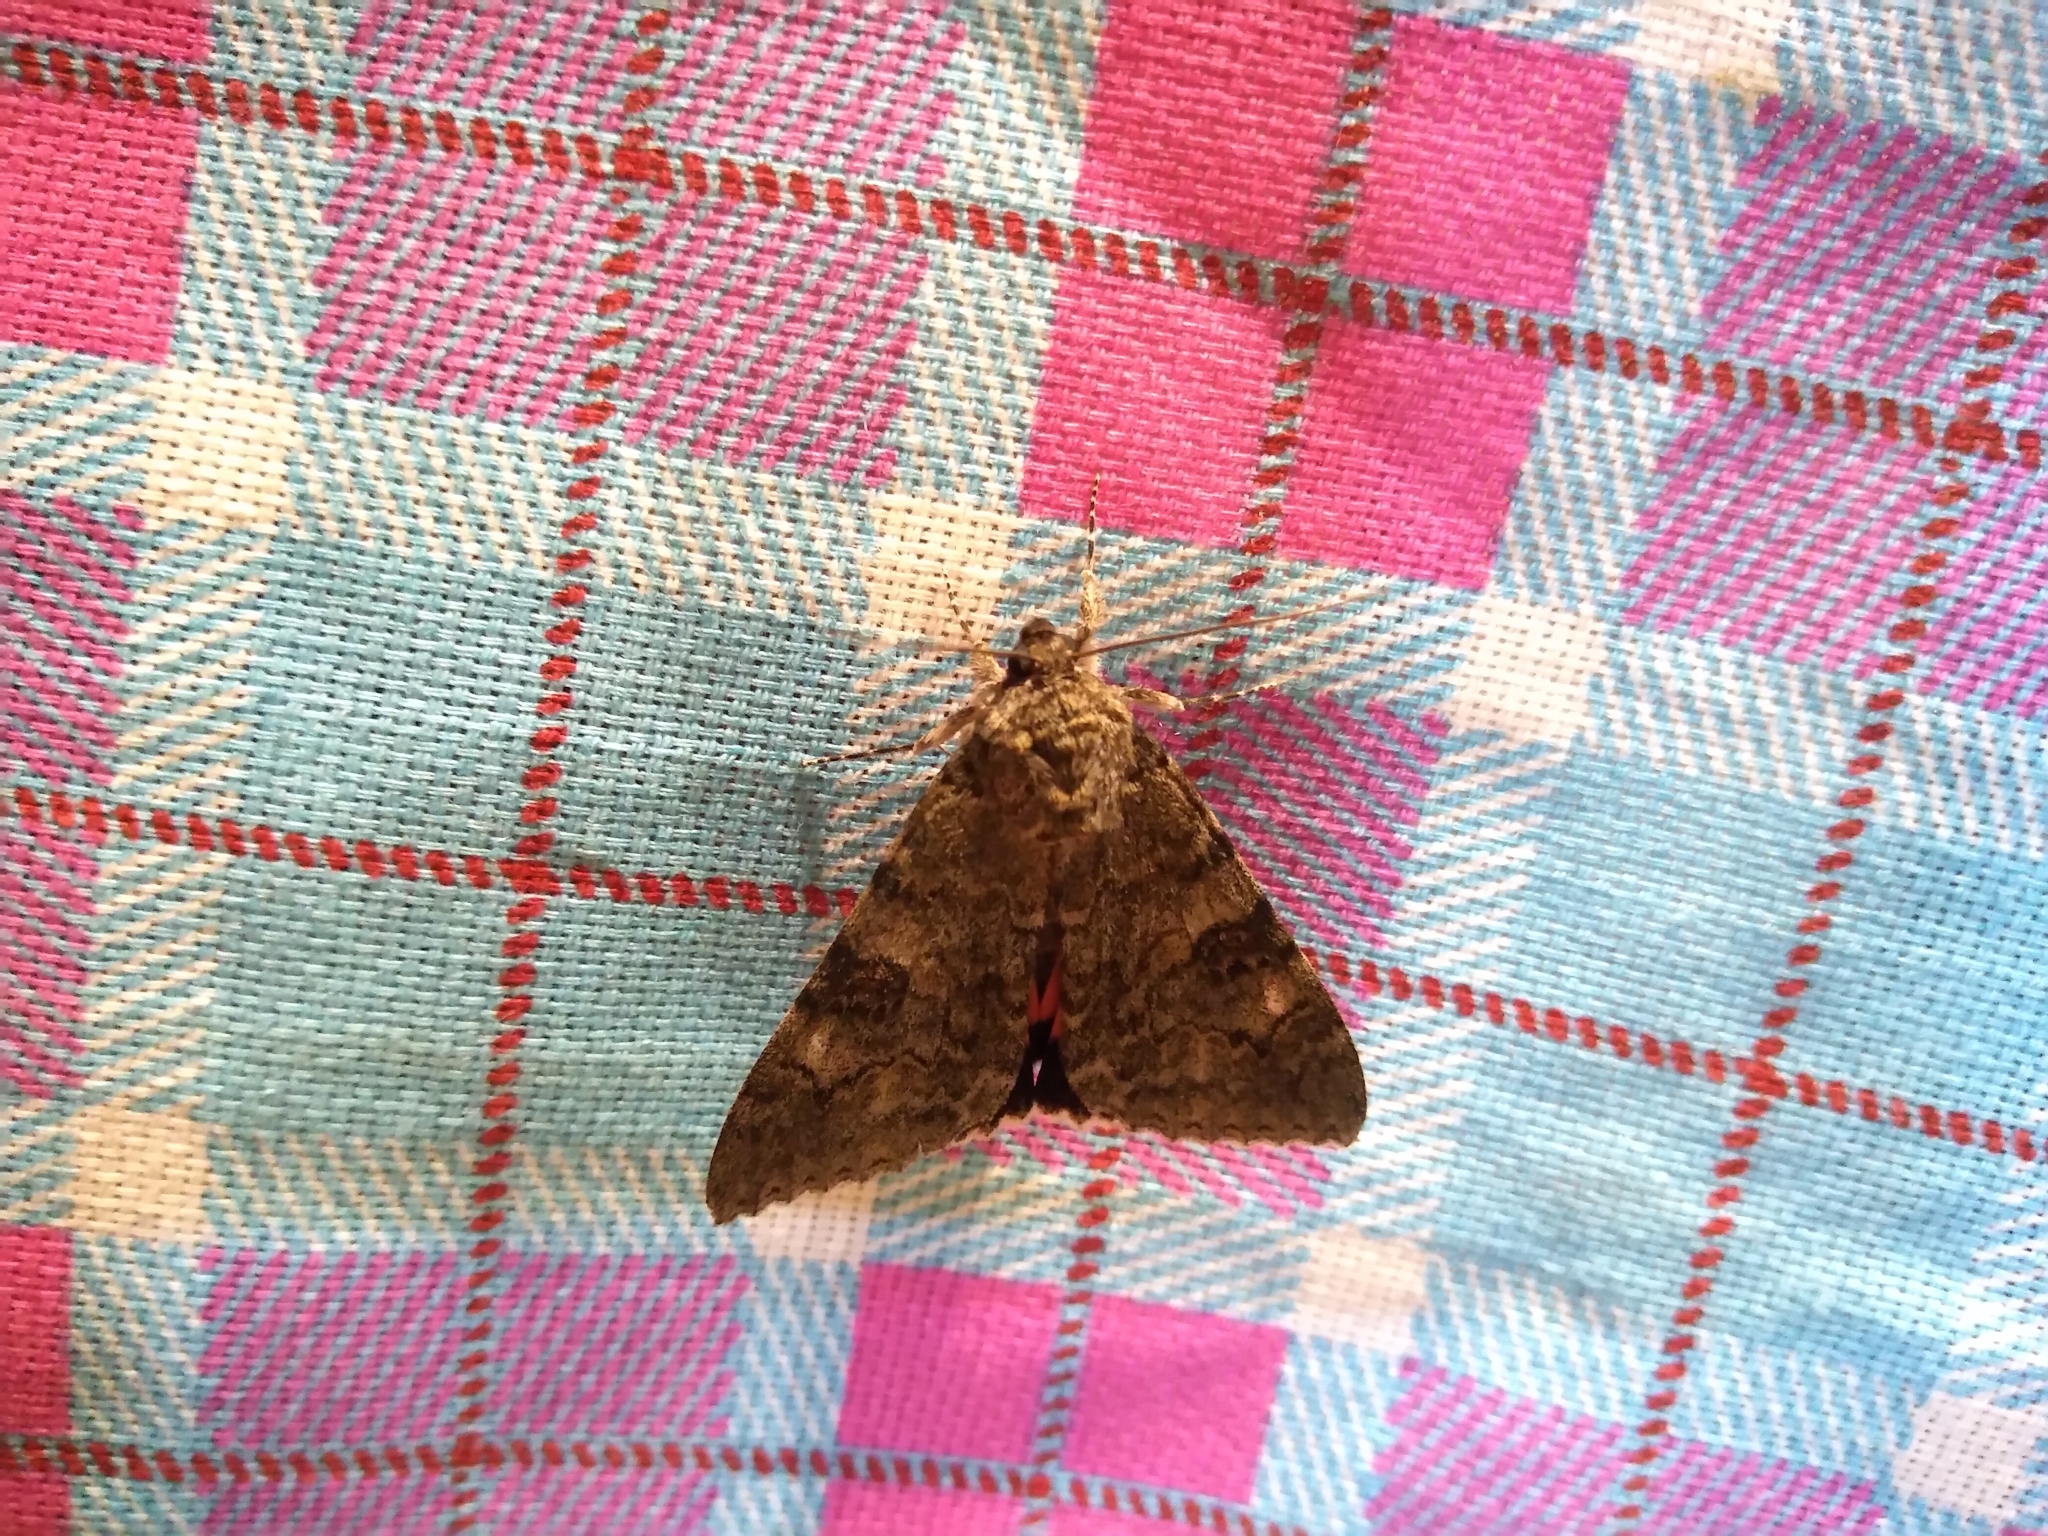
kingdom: Animalia
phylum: Arthropoda
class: Insecta
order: Lepidoptera
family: Erebidae
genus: Catocala
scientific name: Catocala nupta
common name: Red underwing
